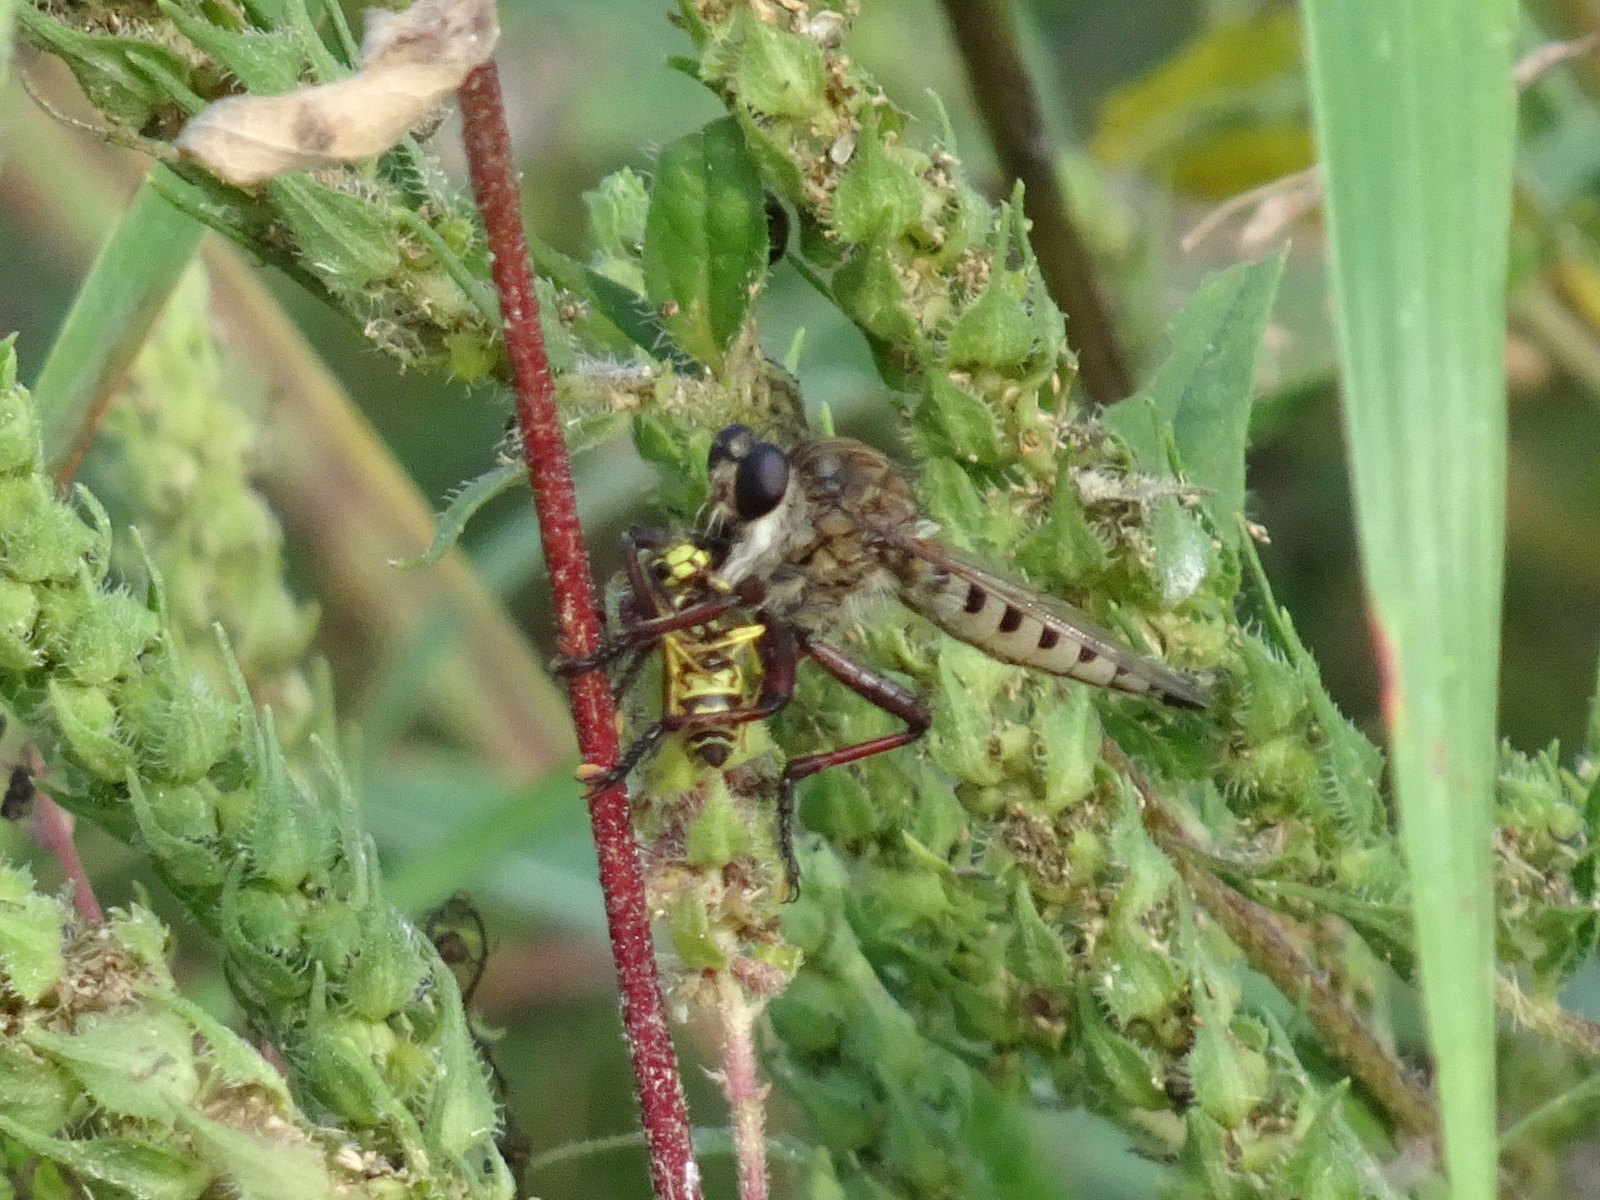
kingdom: Animalia
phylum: Arthropoda
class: Insecta
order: Diptera
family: Asilidae
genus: Promachus
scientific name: Promachus hinei
